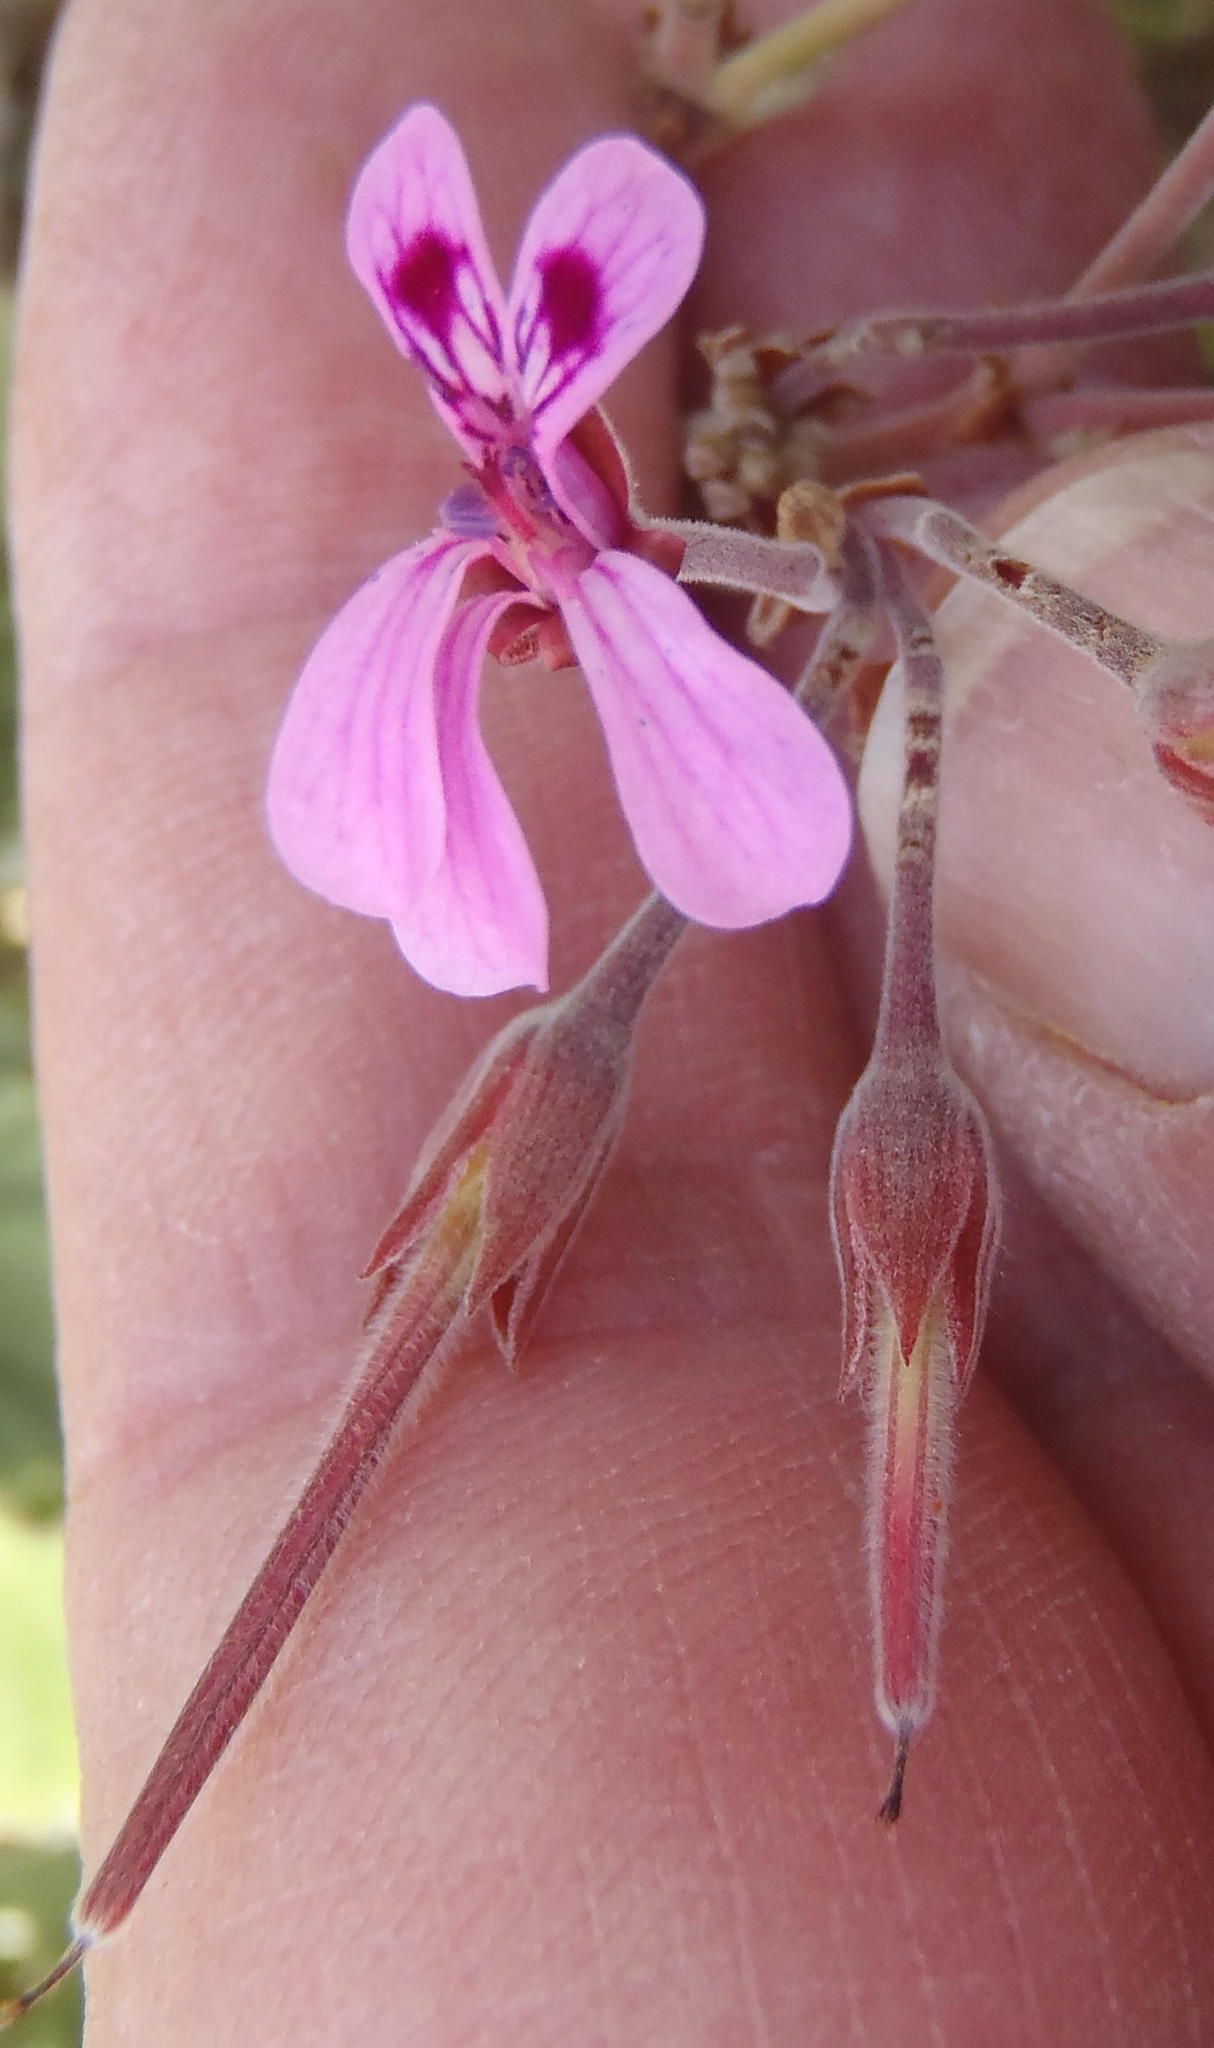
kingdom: Plantae
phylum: Tracheophyta
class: Magnoliopsida
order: Geraniales
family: Geraniaceae
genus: Pelargonium
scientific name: Pelargonium reniforme
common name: Kidney-leaf pelargonium
